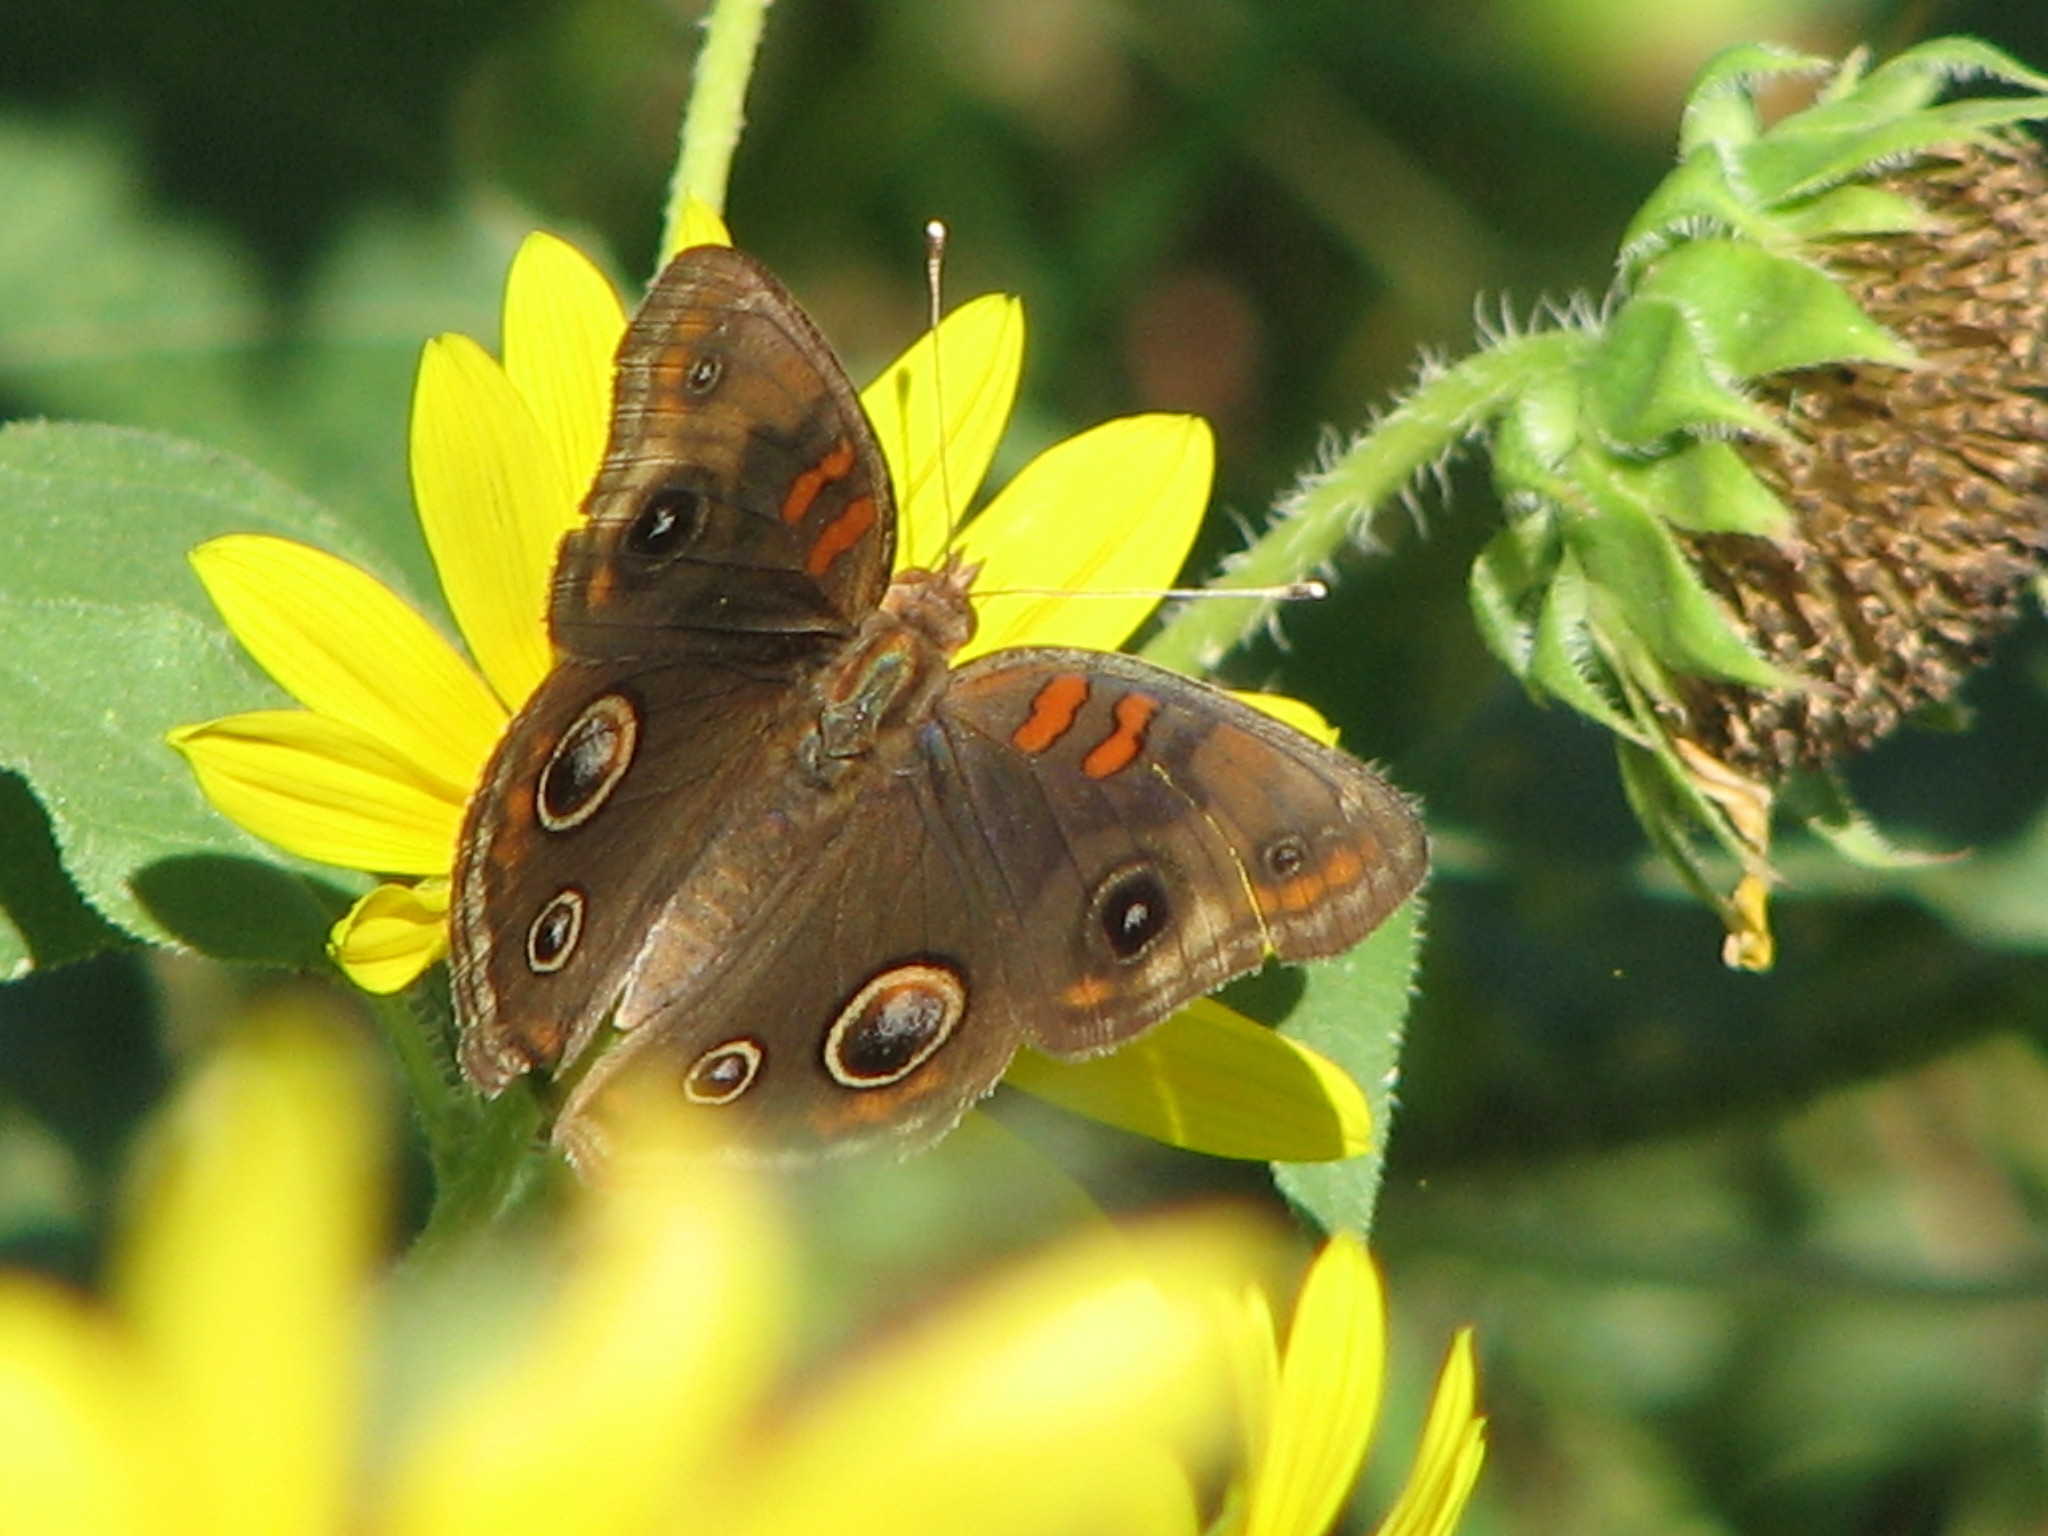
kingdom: Animalia
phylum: Arthropoda
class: Insecta
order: Lepidoptera
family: Nymphalidae
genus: Junonia
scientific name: Junonia stemosa
